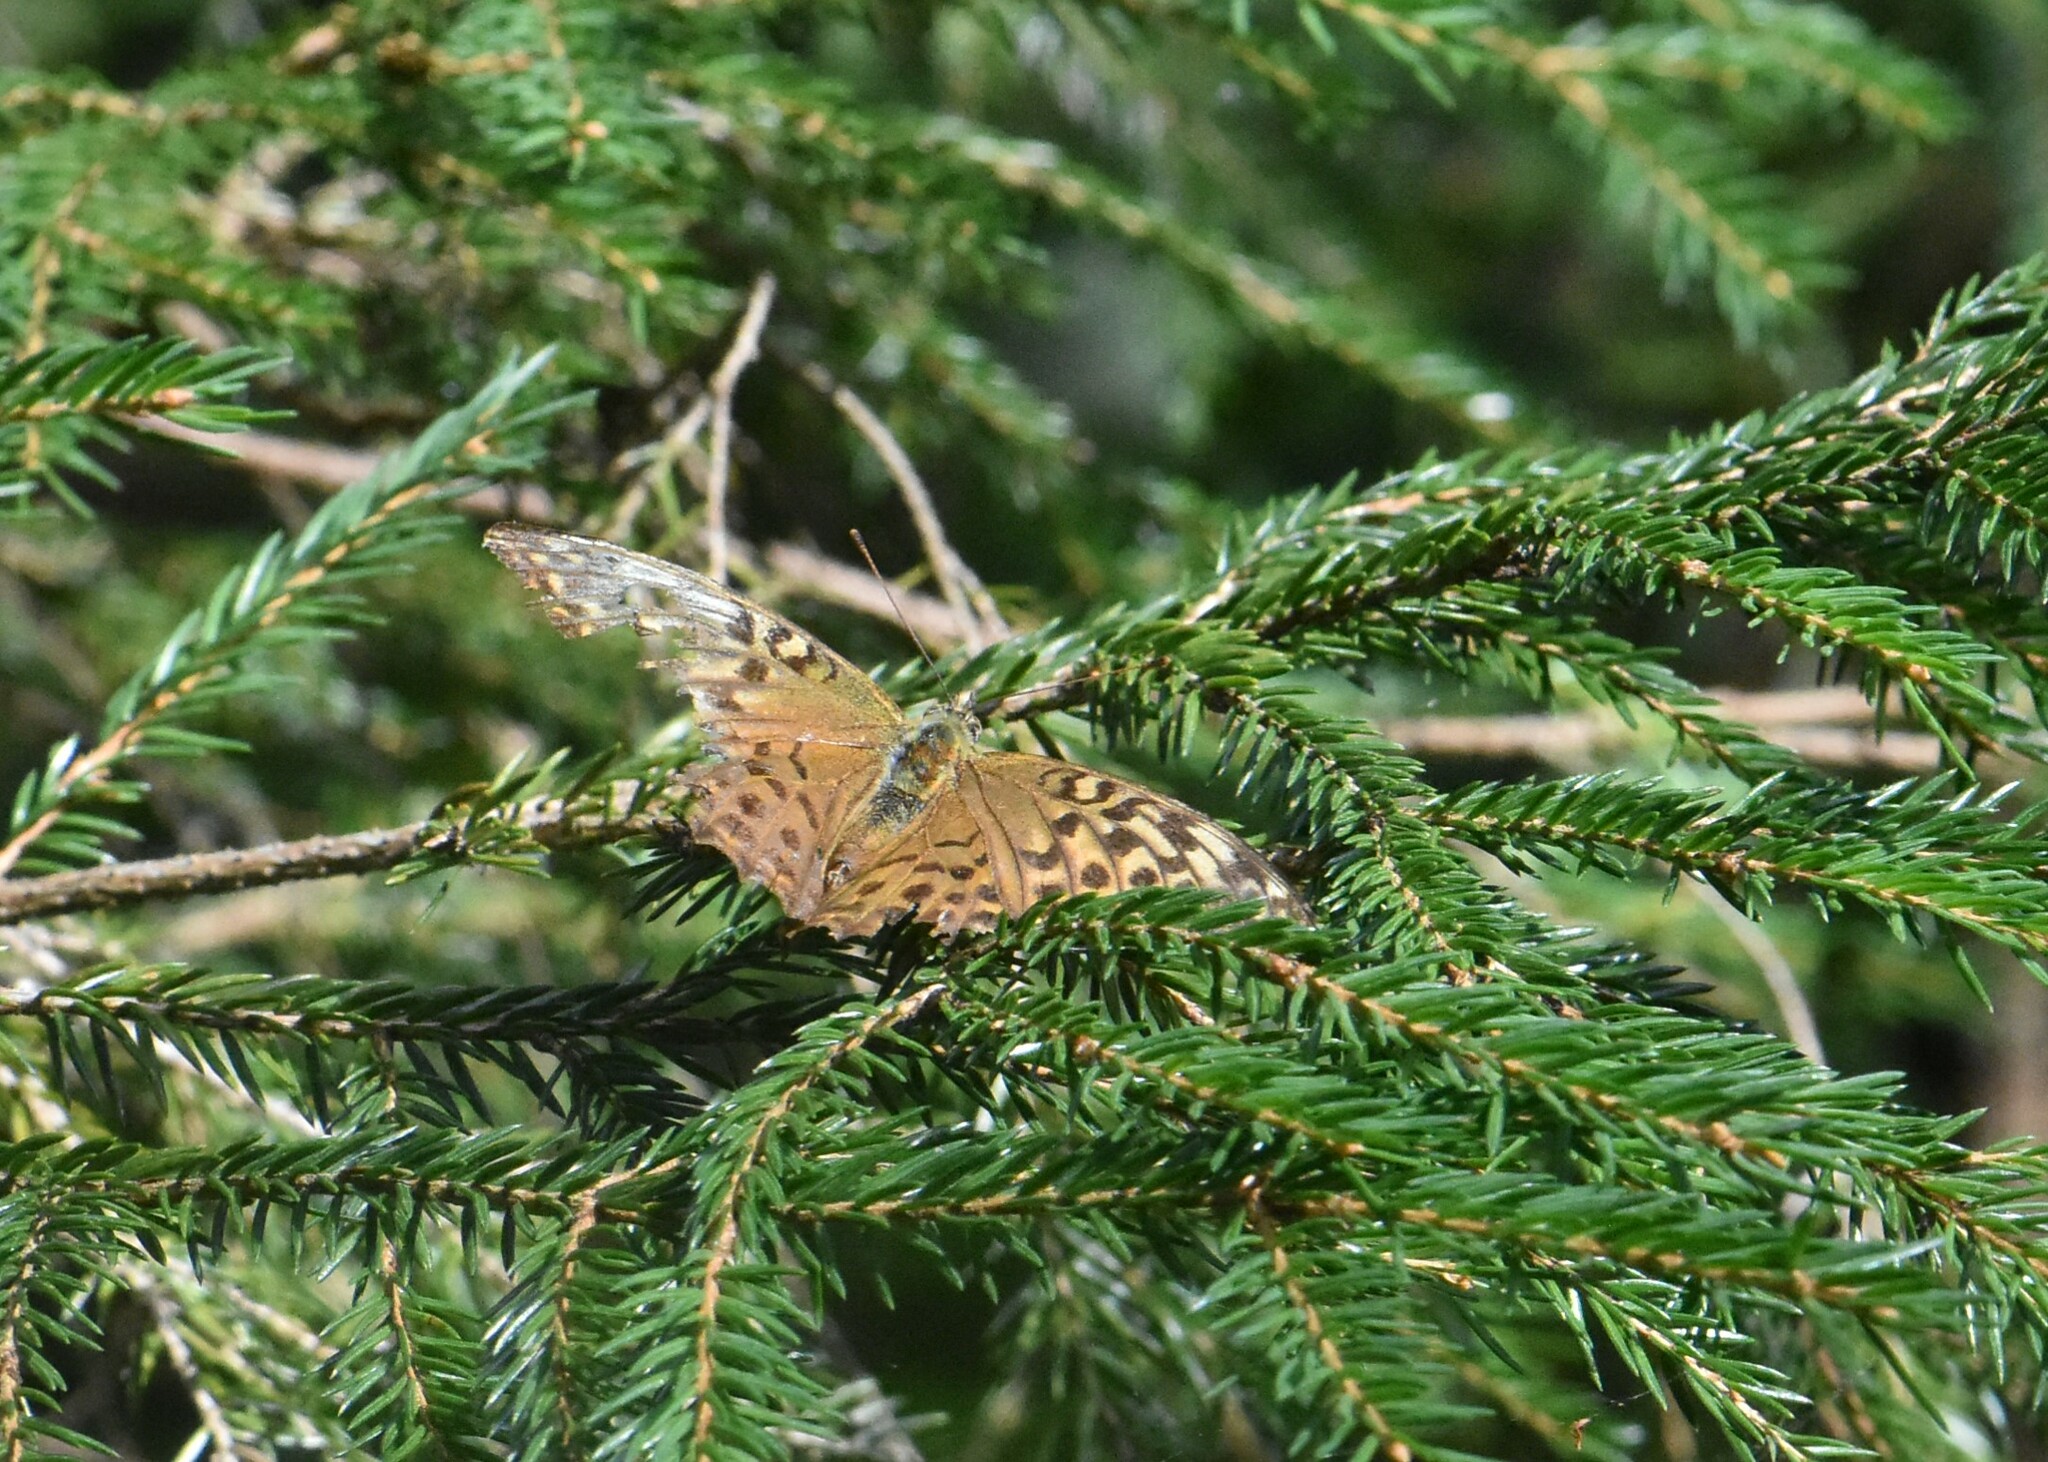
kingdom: Animalia
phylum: Arthropoda
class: Insecta
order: Lepidoptera
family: Nymphalidae
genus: Argynnis
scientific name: Argynnis paphia
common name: Silver-washed fritillary
